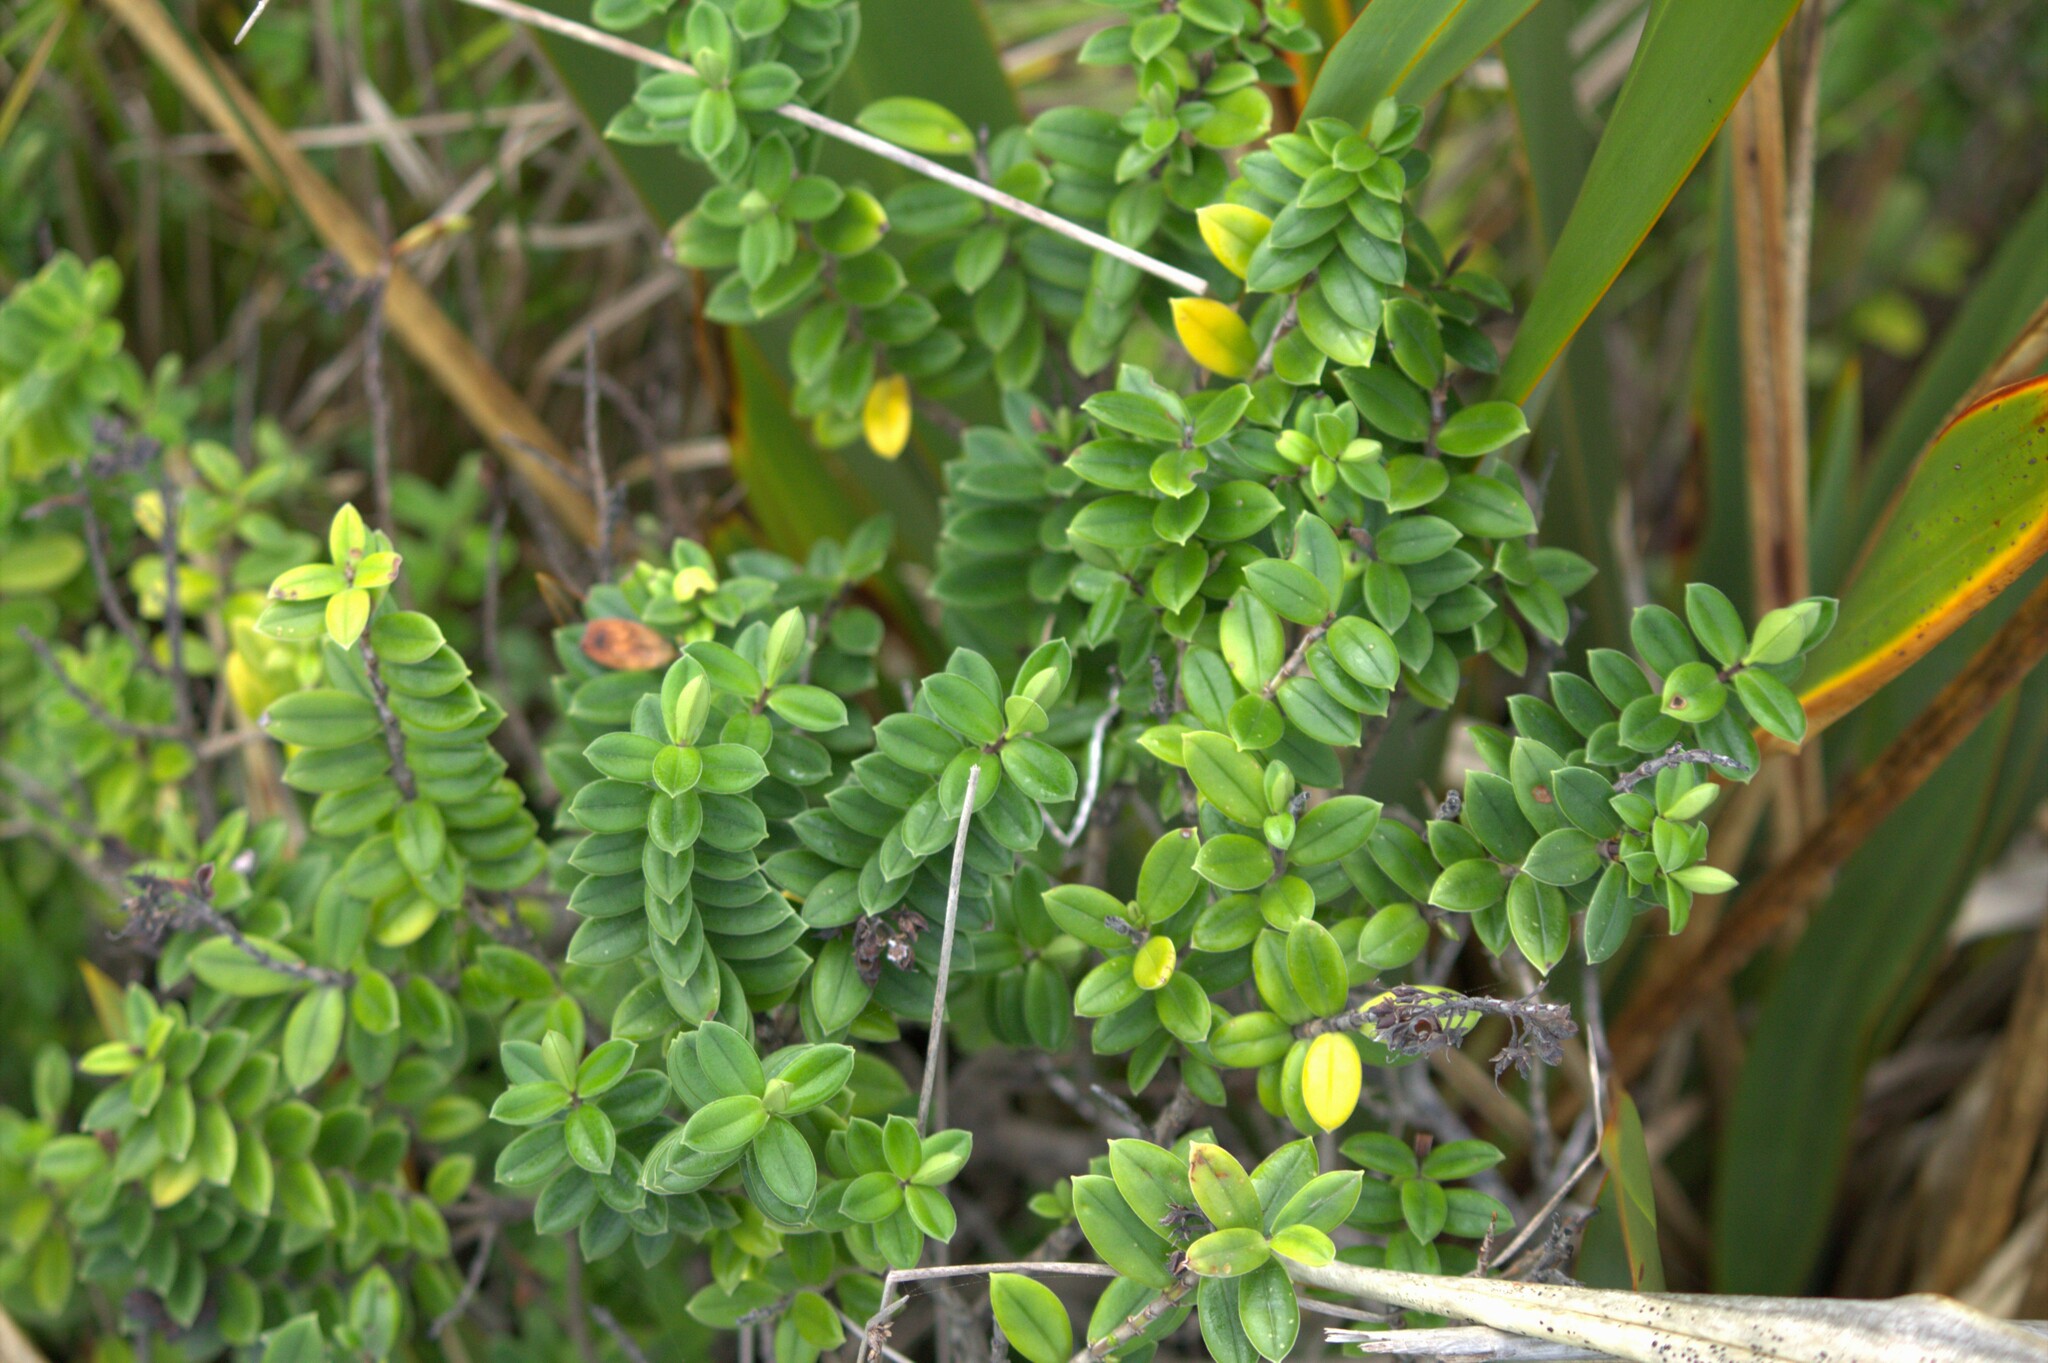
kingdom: Plantae
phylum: Tracheophyta
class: Magnoliopsida
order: Lamiales
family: Plantaginaceae
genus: Veronica
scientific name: Veronica elliptica
